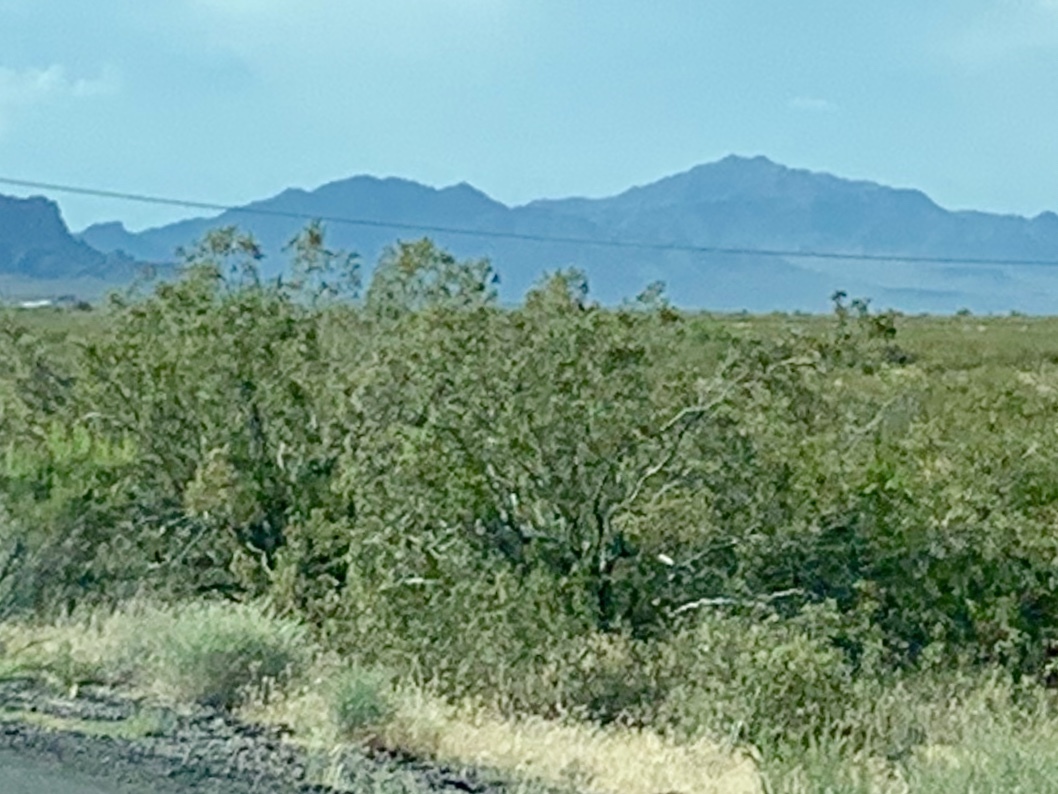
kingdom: Plantae
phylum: Tracheophyta
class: Magnoliopsida
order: Zygophyllales
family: Zygophyllaceae
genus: Larrea
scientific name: Larrea tridentata
